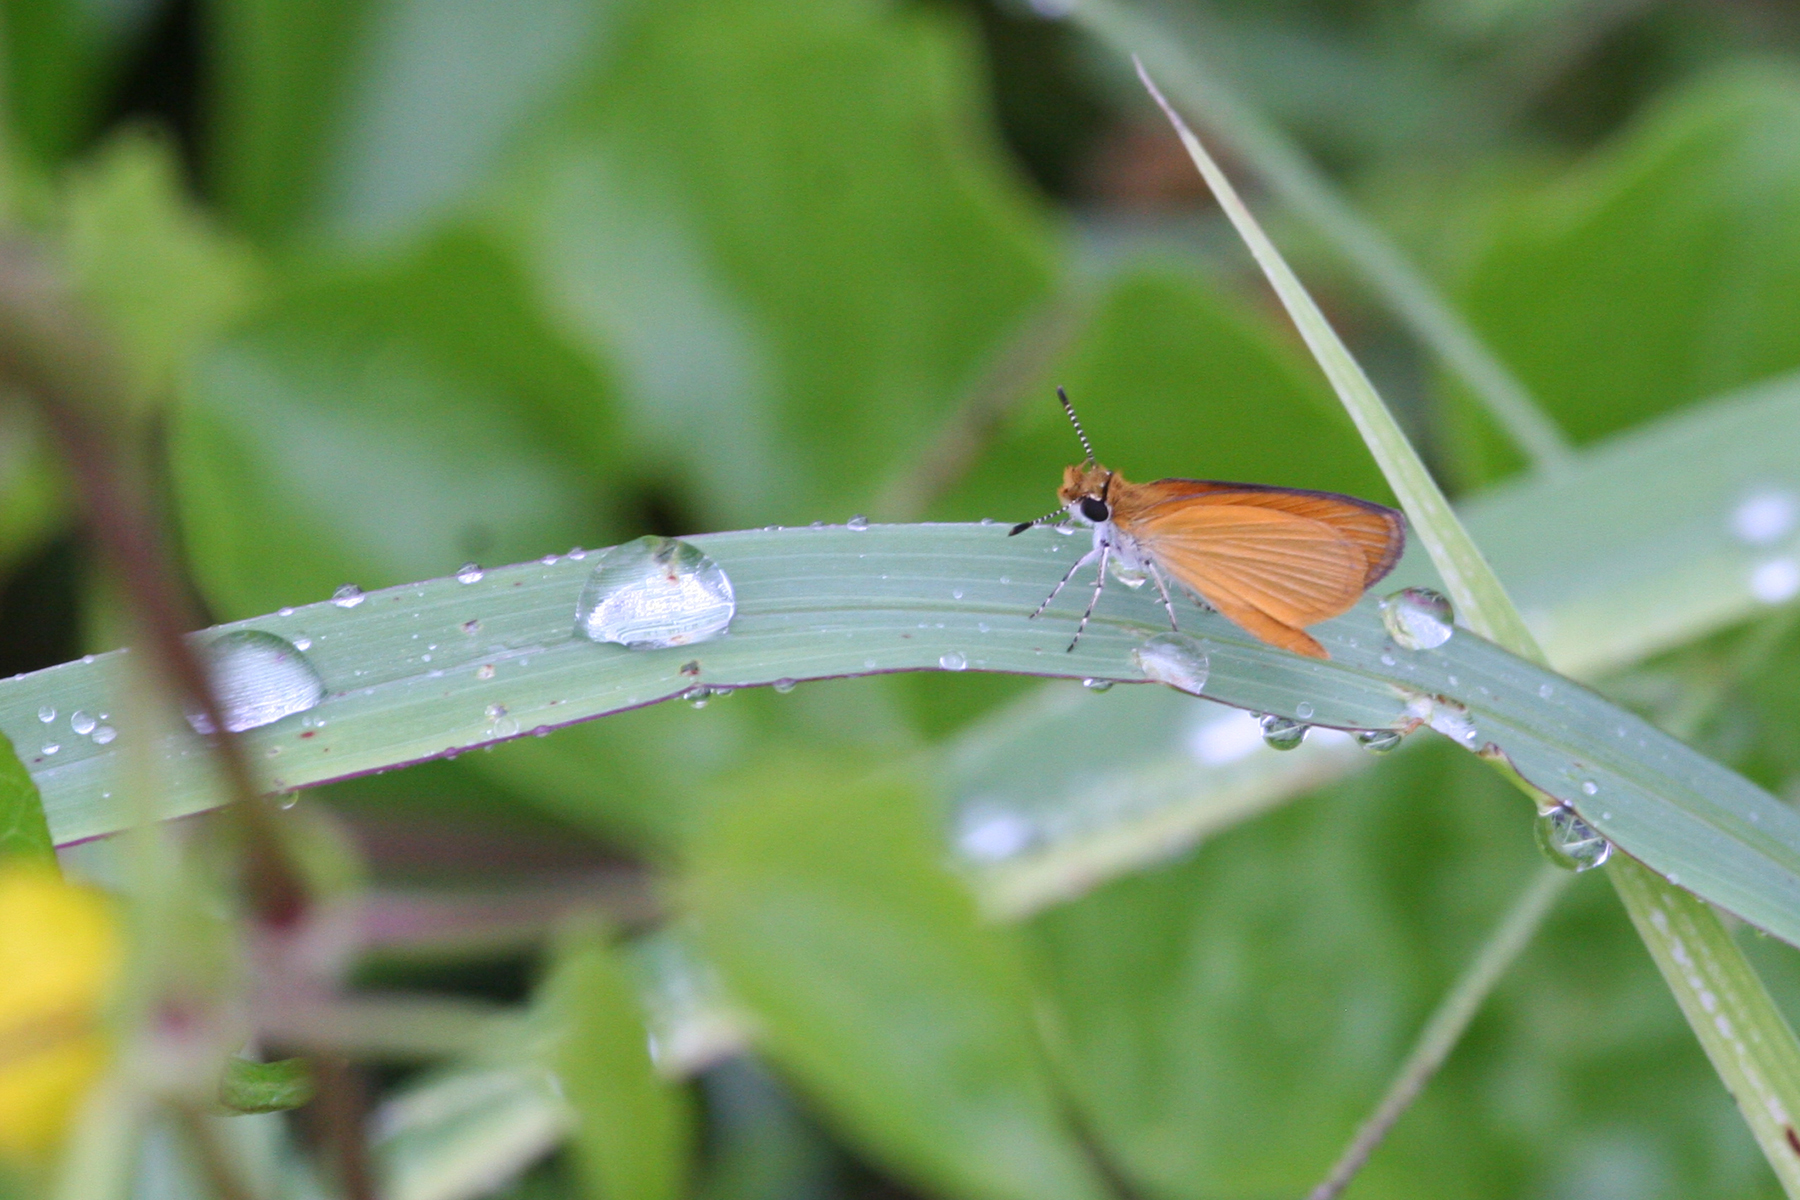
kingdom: Animalia
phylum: Arthropoda
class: Insecta
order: Lepidoptera
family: Hesperiidae
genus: Ancyloxypha
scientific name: Ancyloxypha numitor
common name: Least skipper
